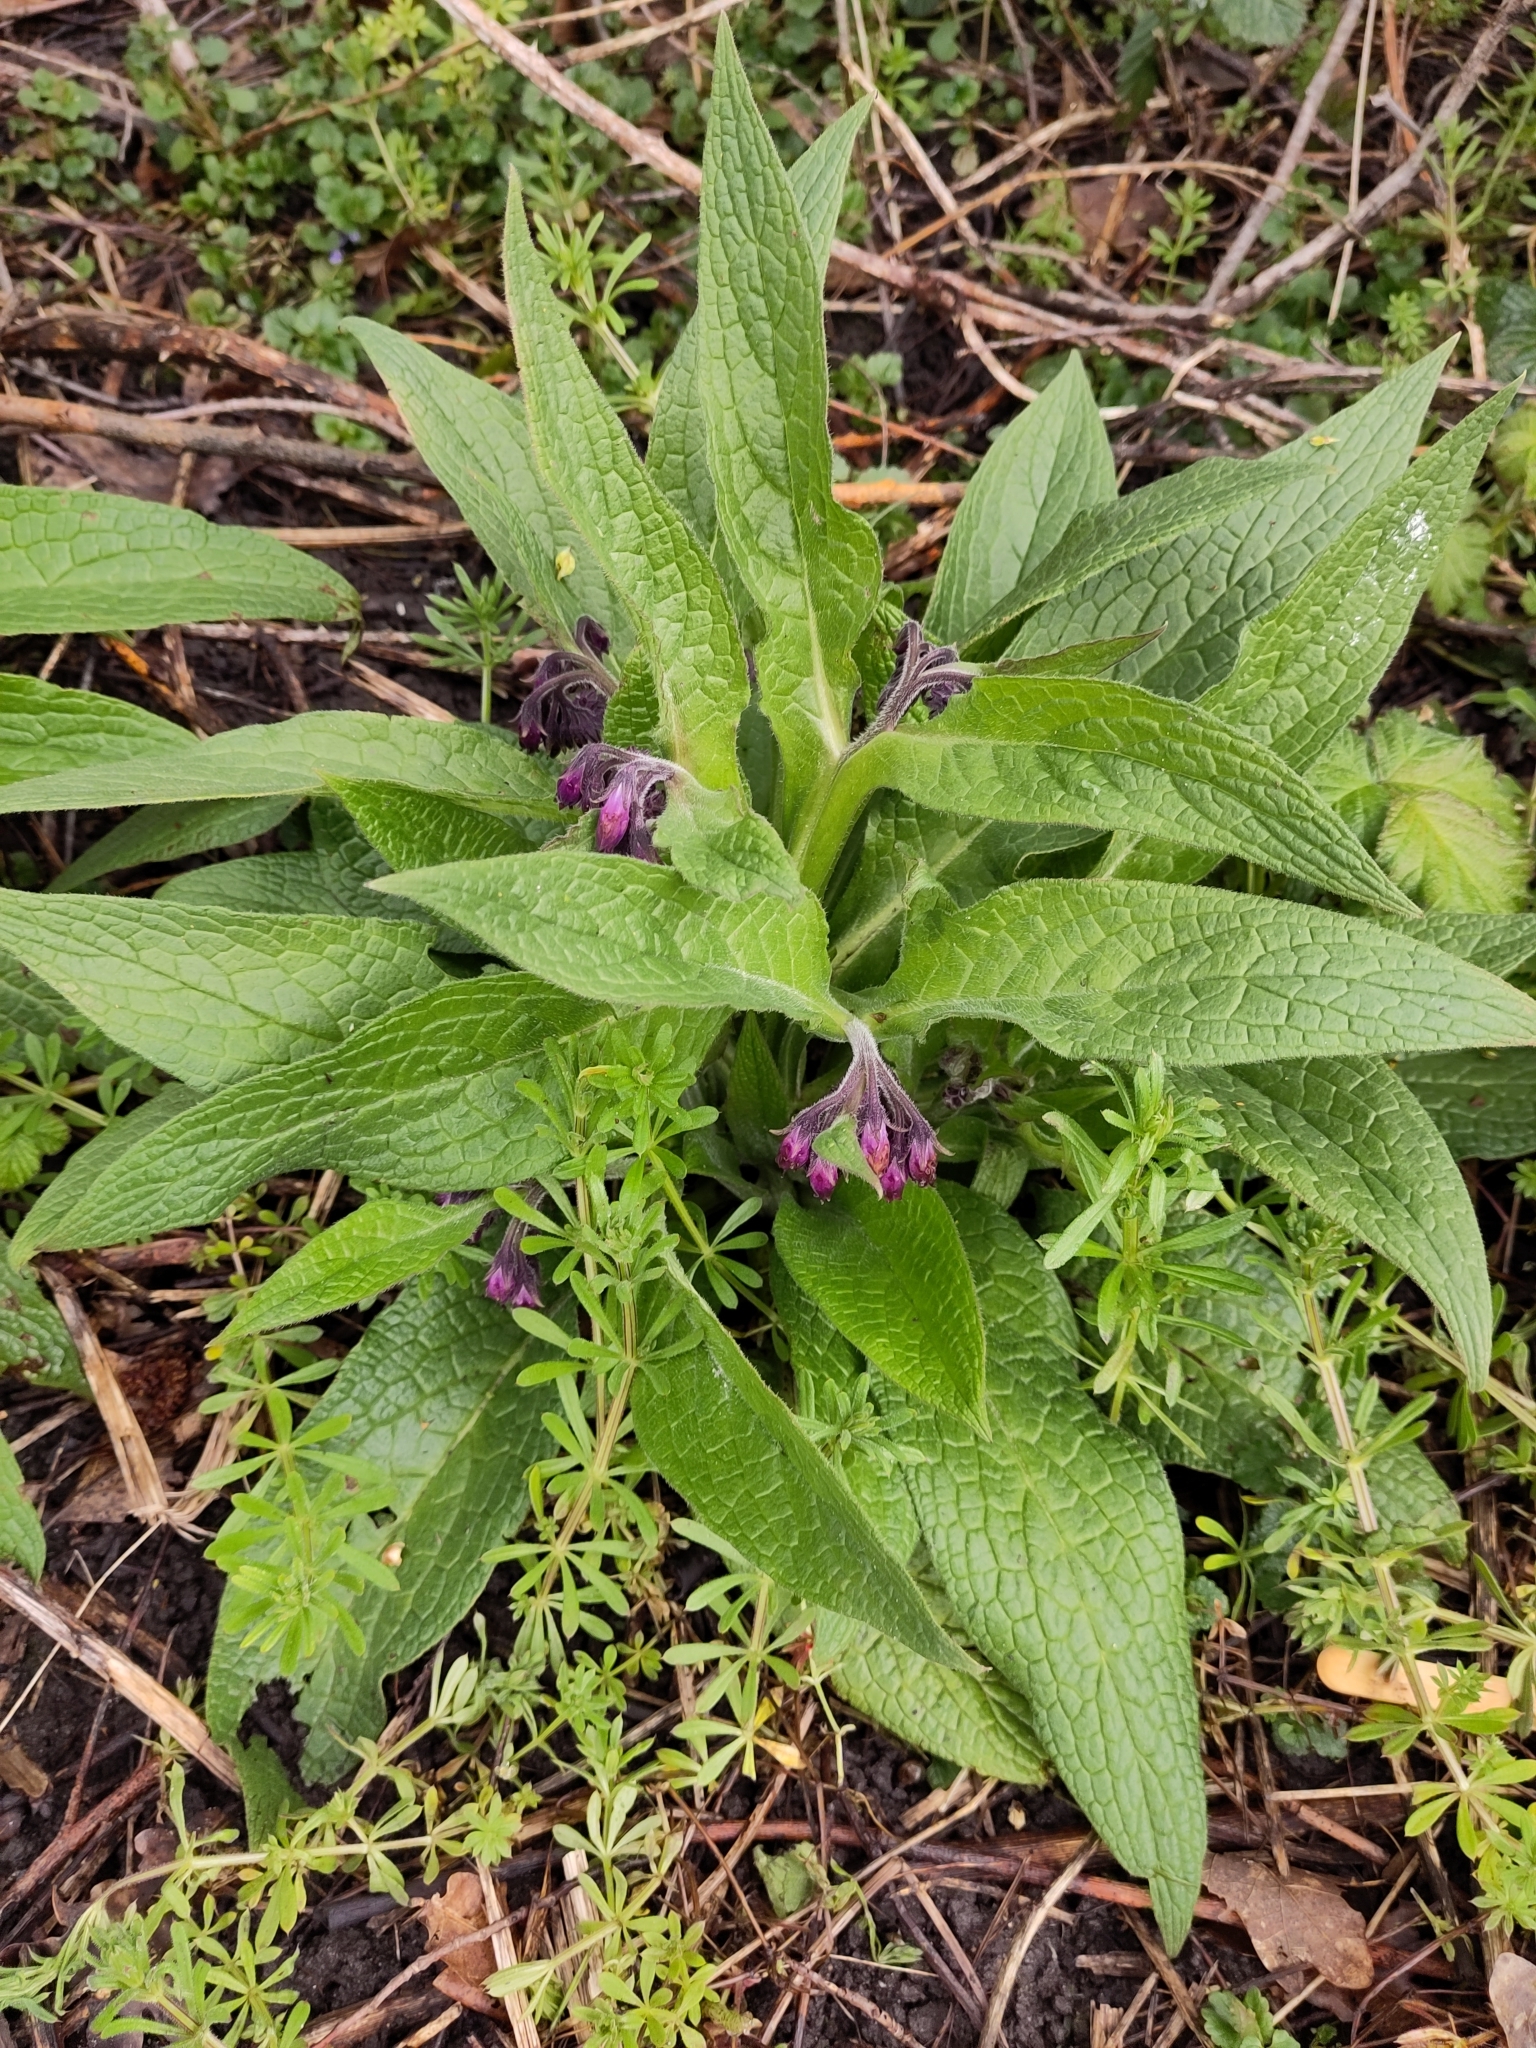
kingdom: Plantae
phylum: Tracheophyta
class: Magnoliopsida
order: Boraginales
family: Boraginaceae
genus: Symphytum
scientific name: Symphytum officinale
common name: Common comfrey
